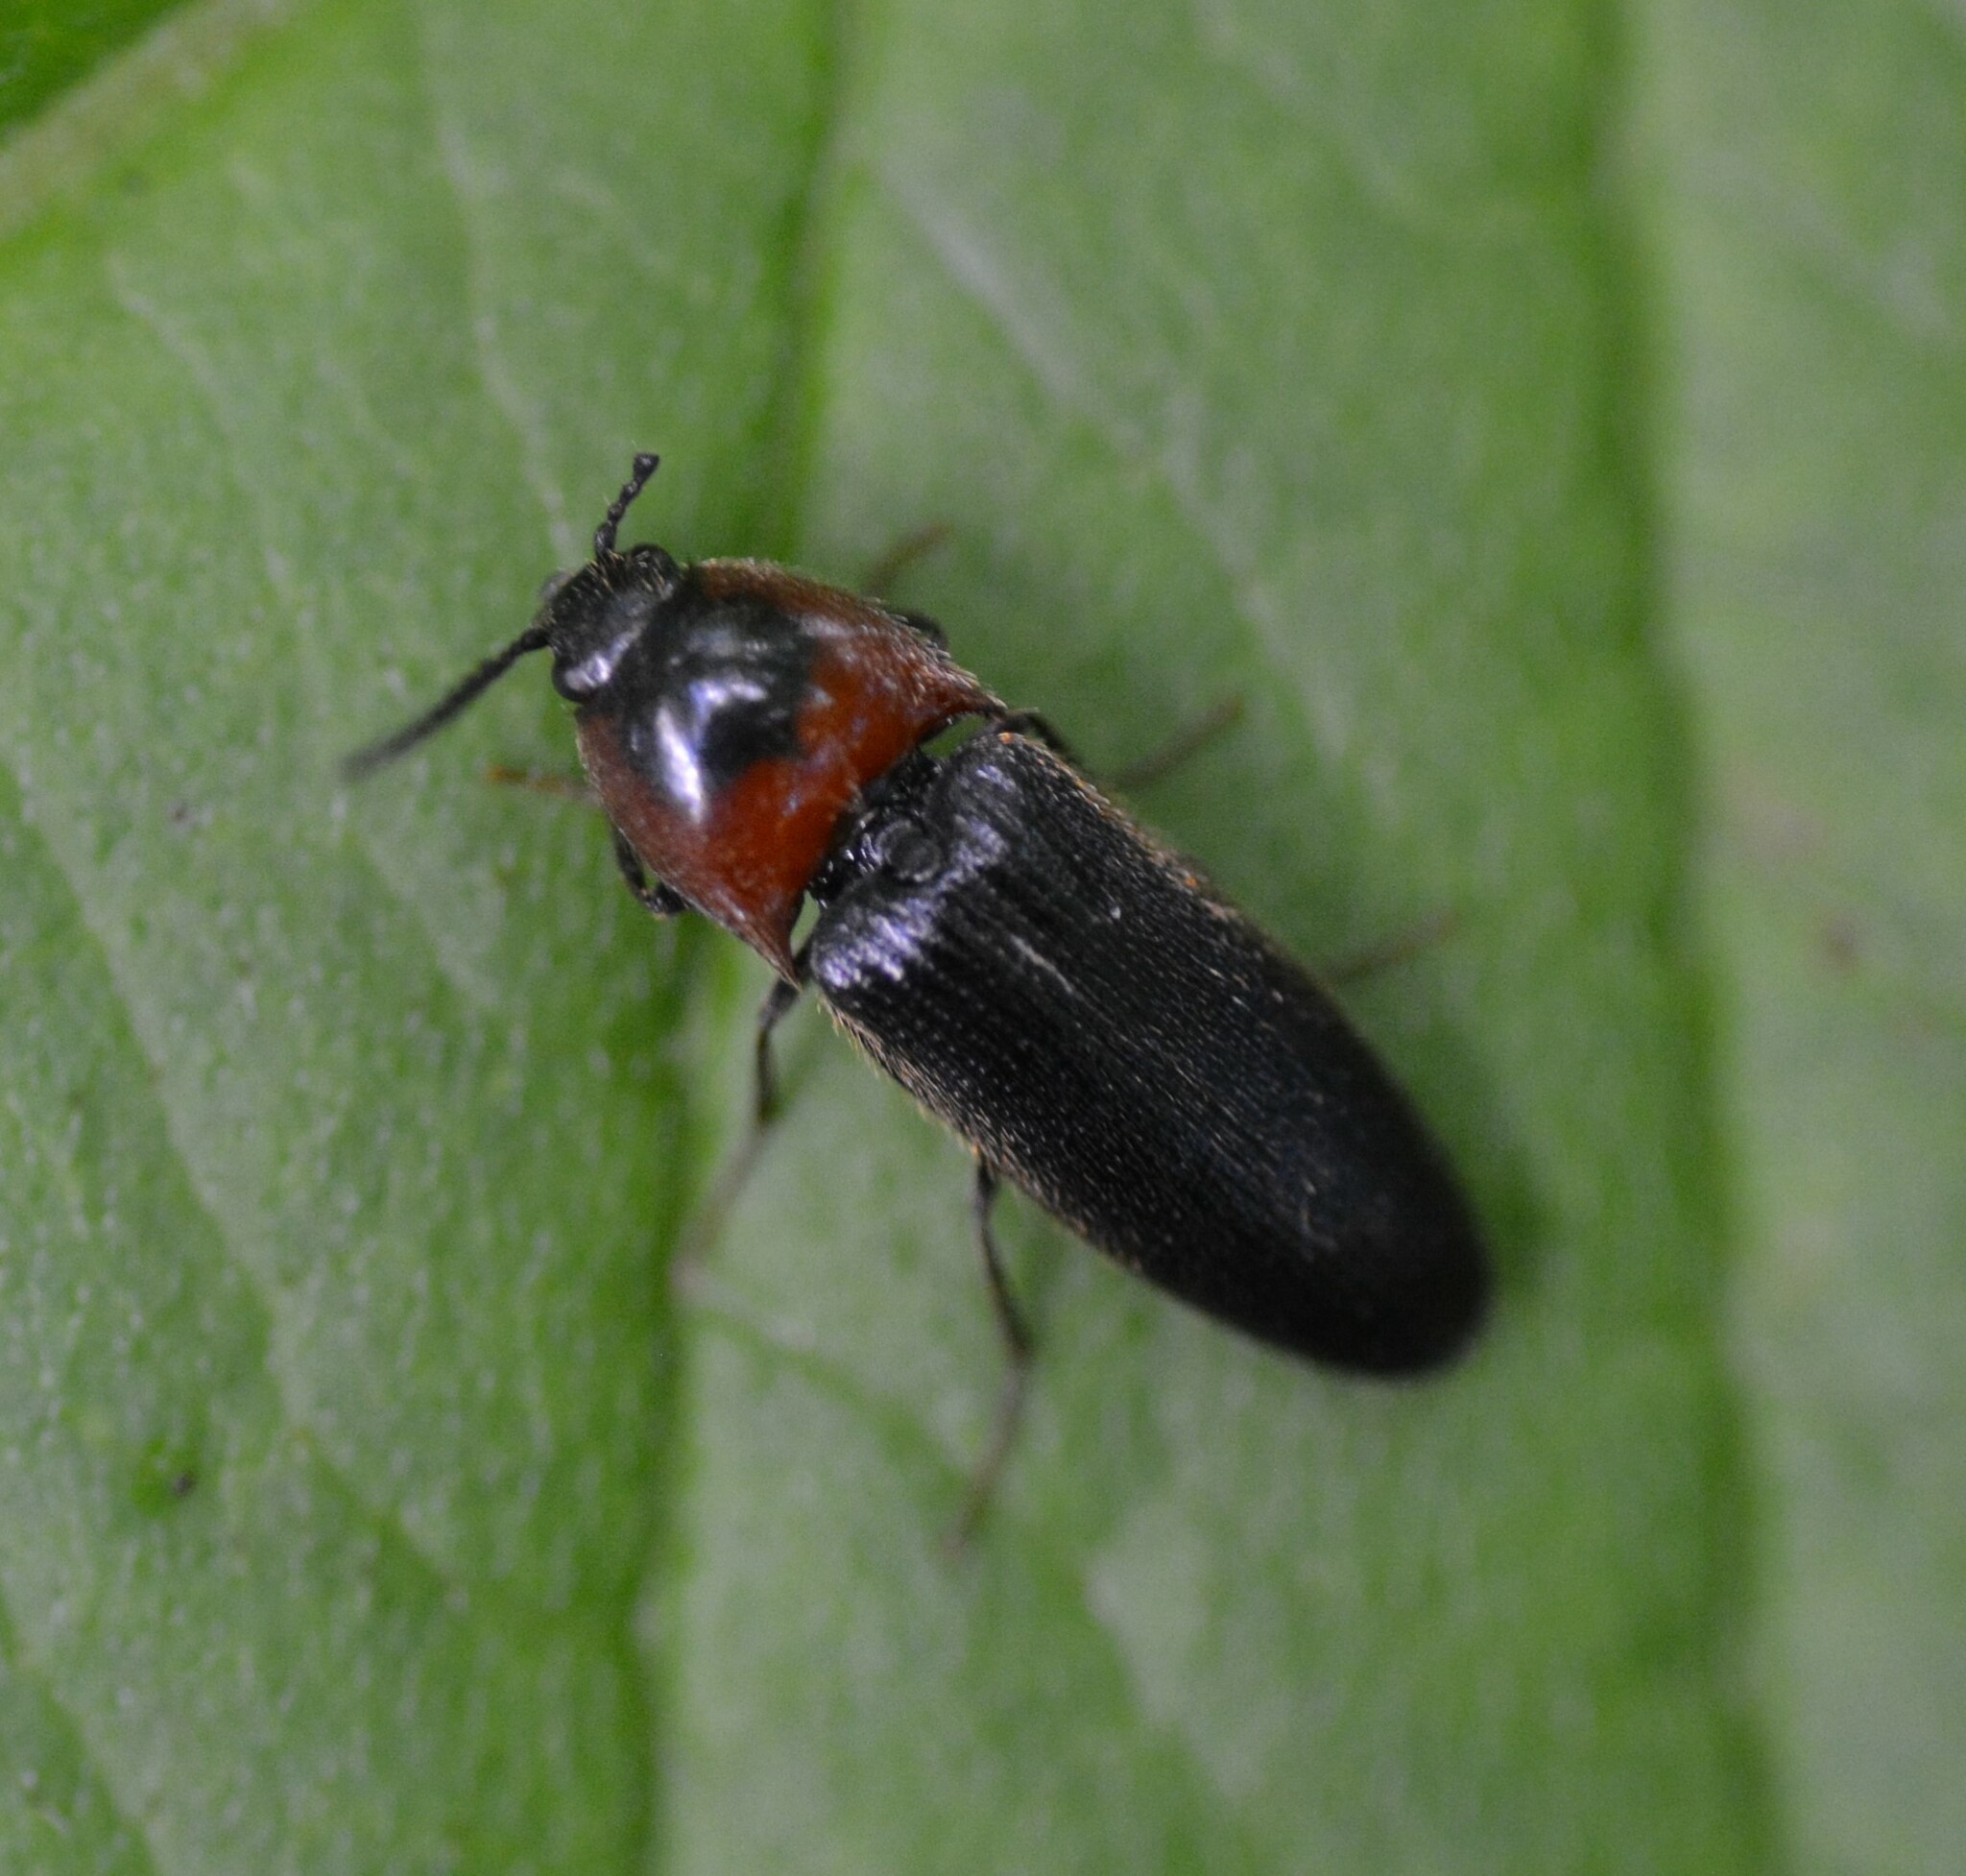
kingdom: Animalia
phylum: Arthropoda
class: Insecta
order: Coleoptera
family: Elateridae
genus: Ampedus
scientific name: Ampedus rubricus
